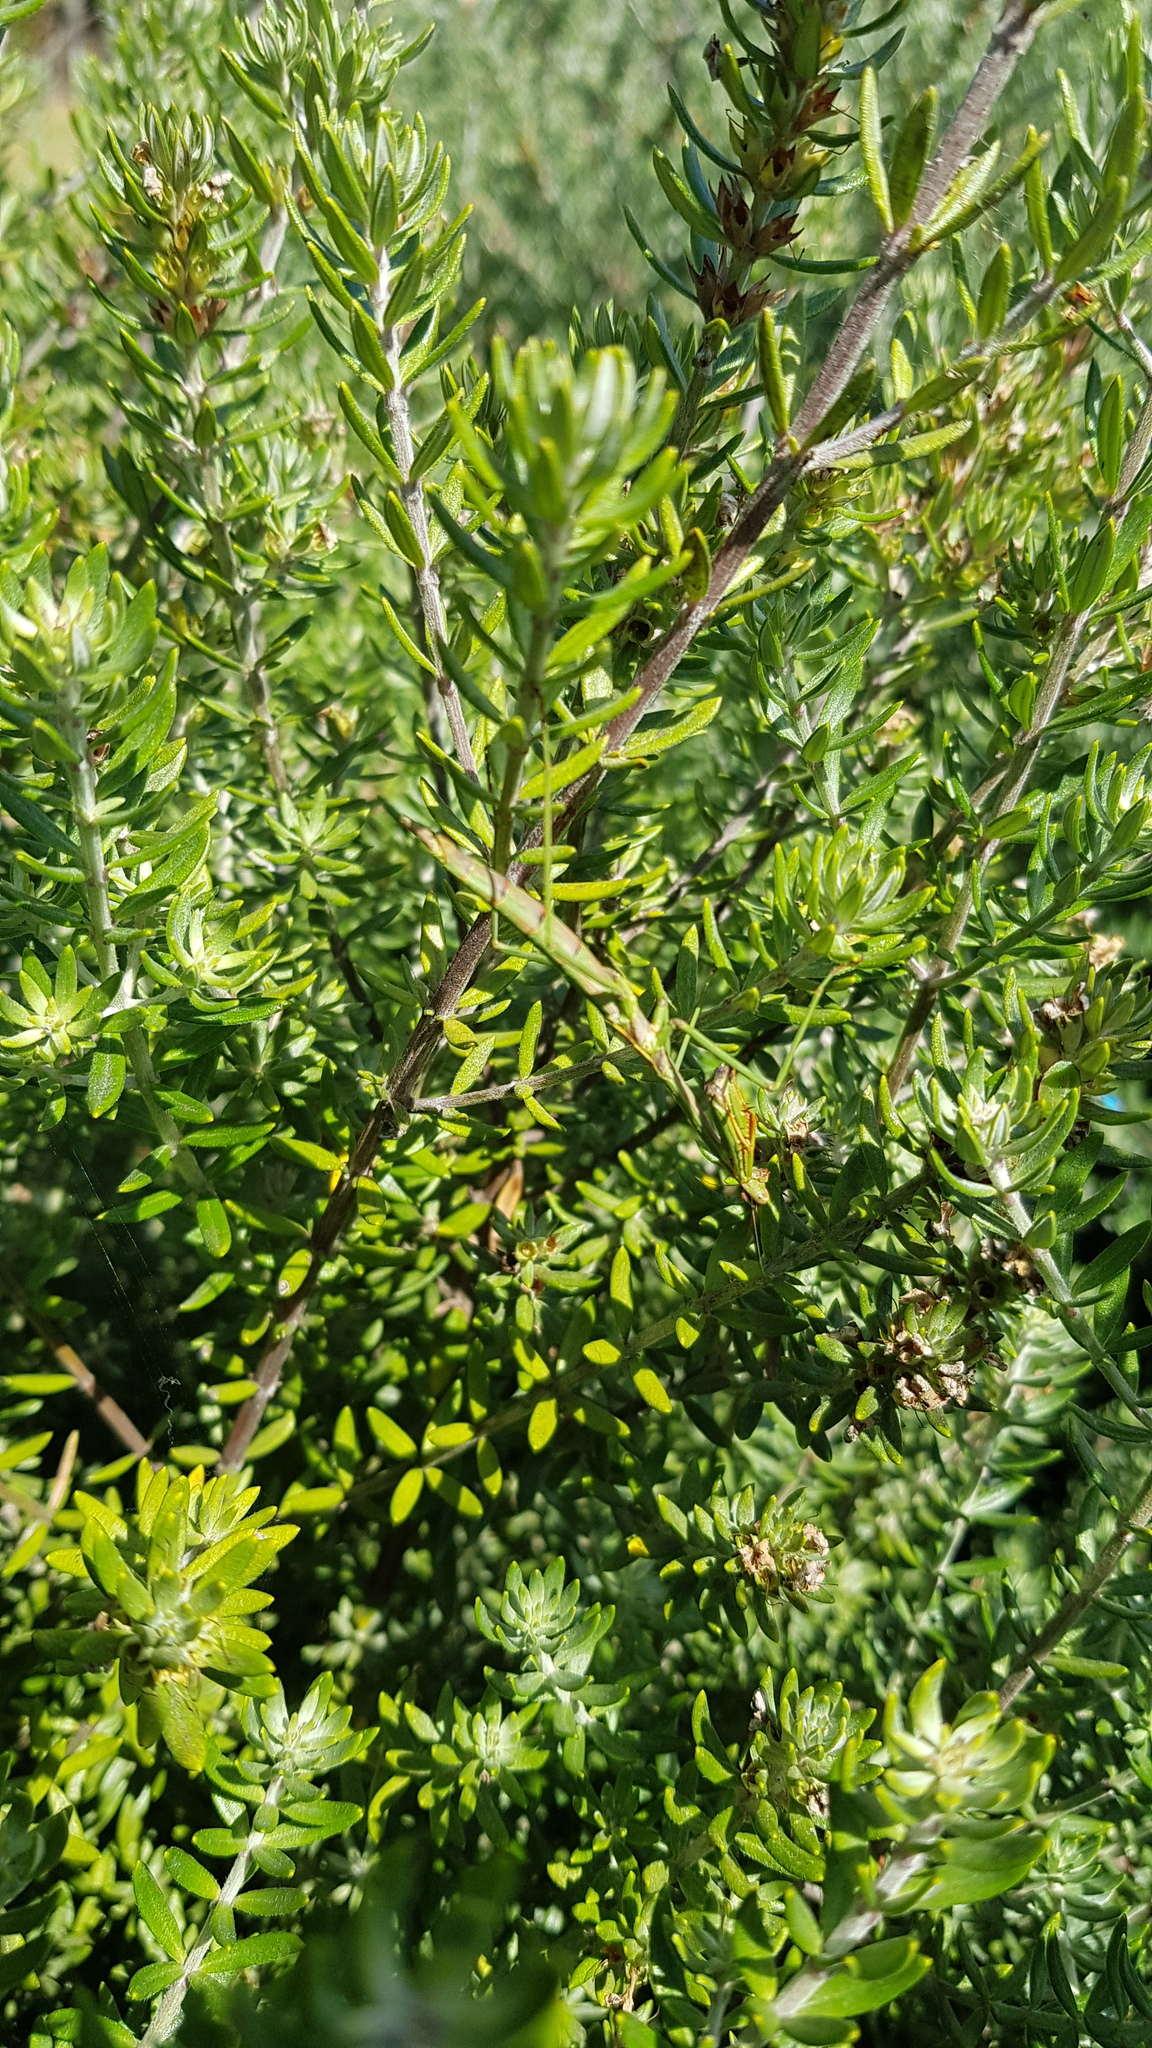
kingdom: Animalia
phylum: Arthropoda
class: Insecta
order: Mantodea
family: Mantidae
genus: Archimantis
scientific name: Archimantis latistyla
